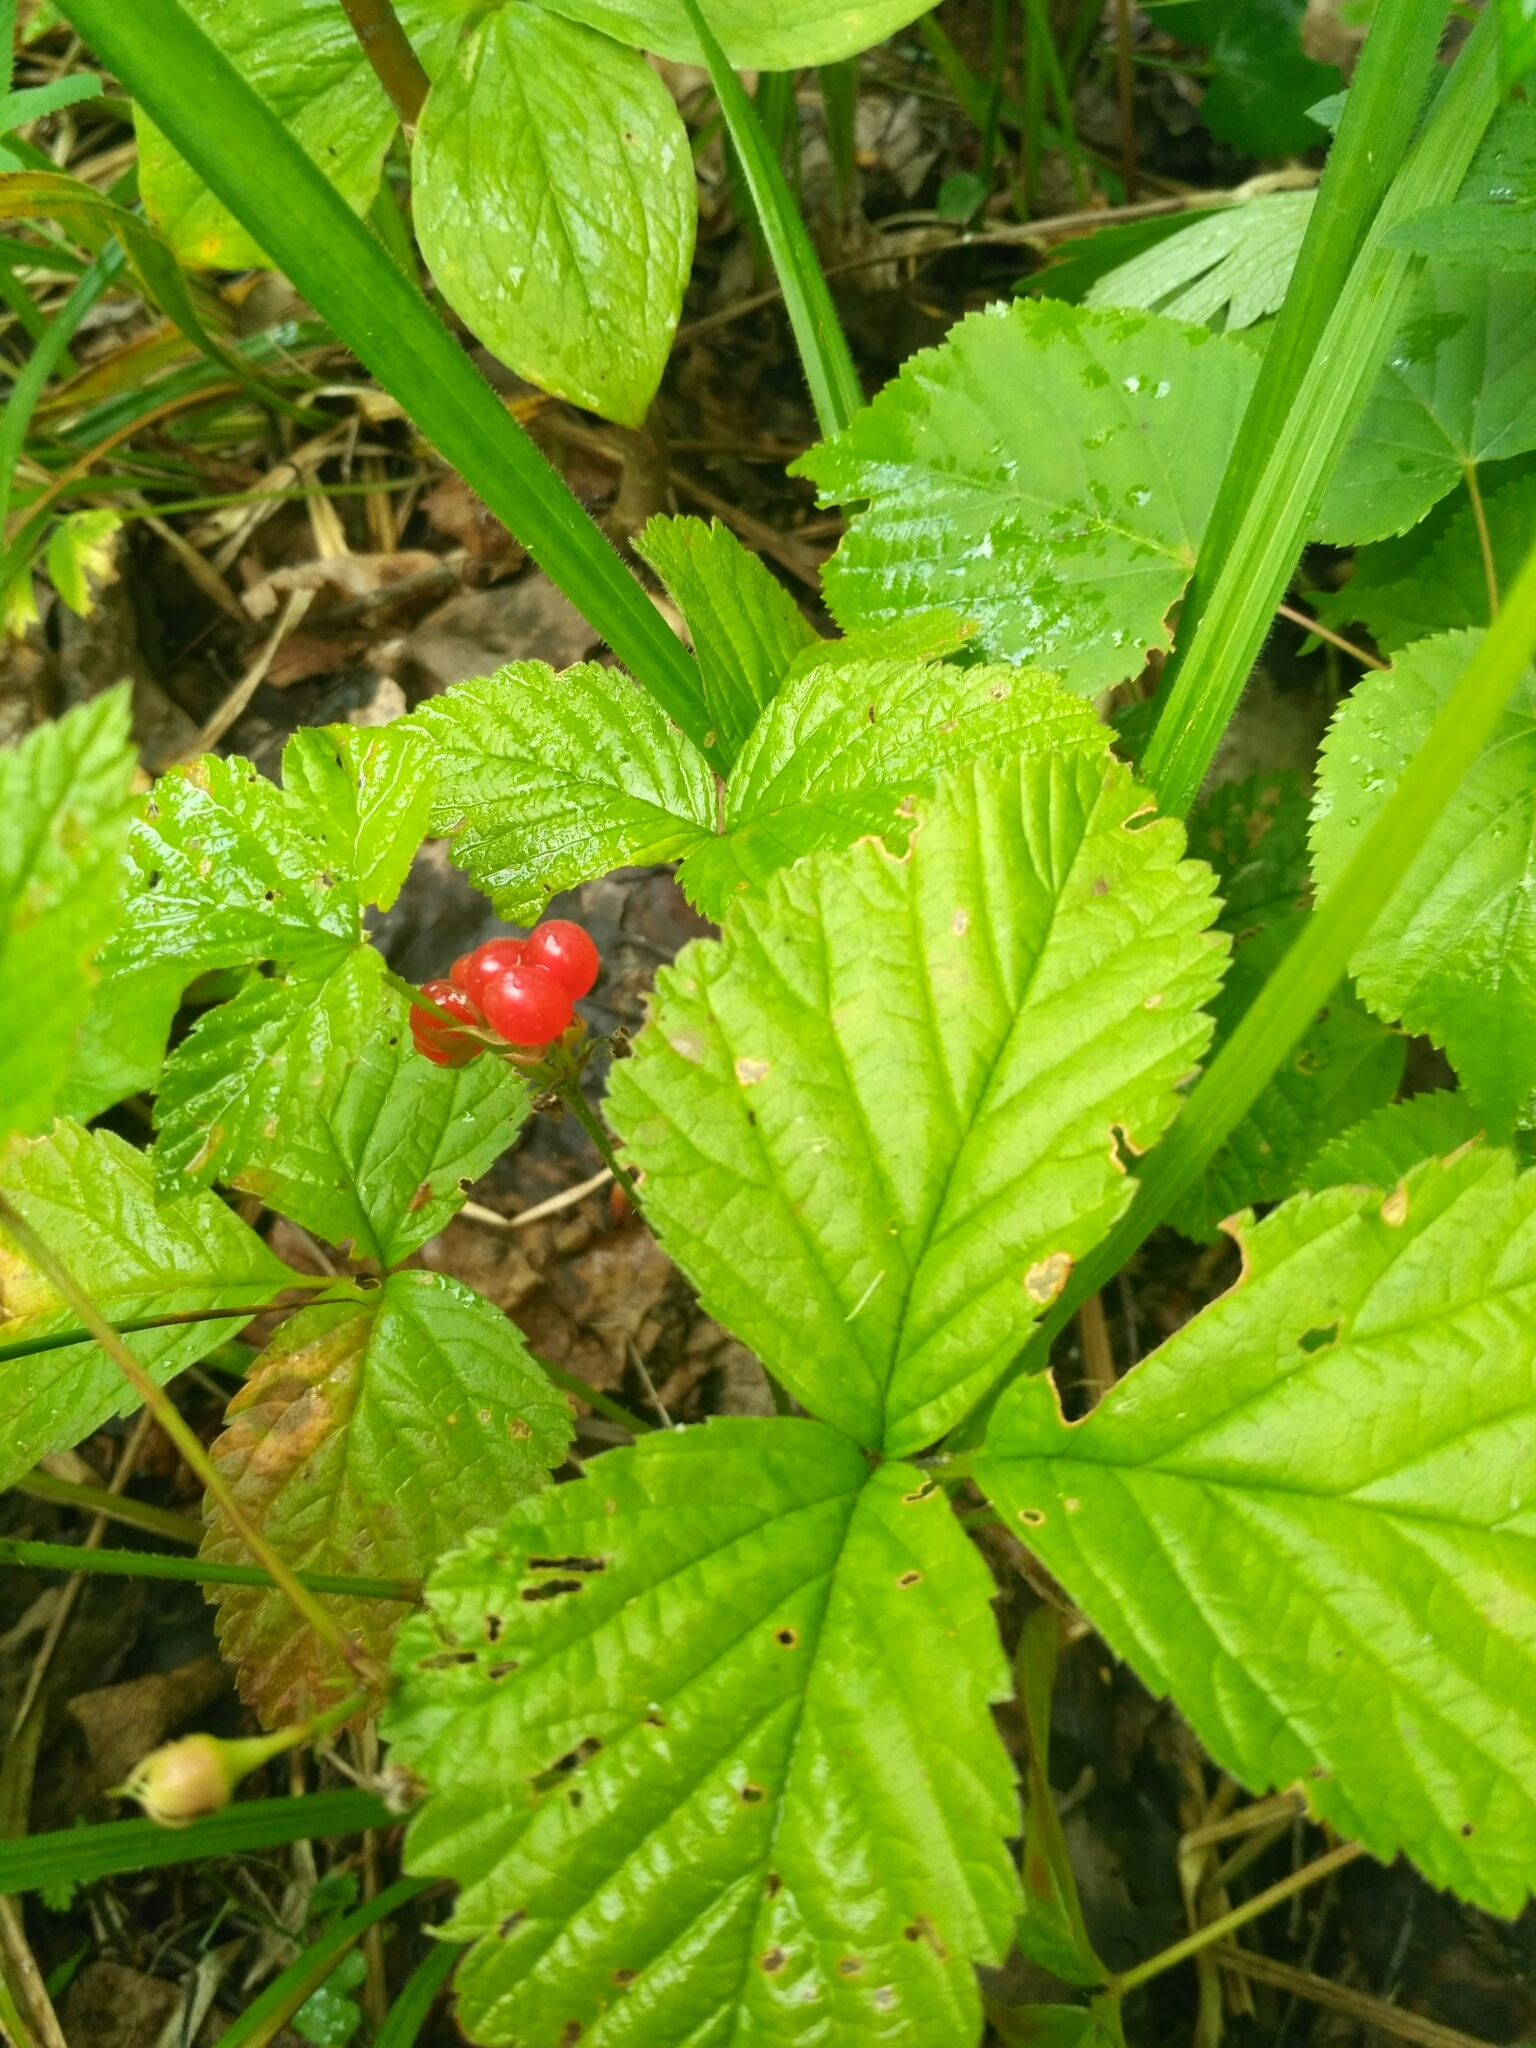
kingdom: Plantae
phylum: Tracheophyta
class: Magnoliopsida
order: Rosales
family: Rosaceae
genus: Rubus
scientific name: Rubus saxatilis
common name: Stone bramble
